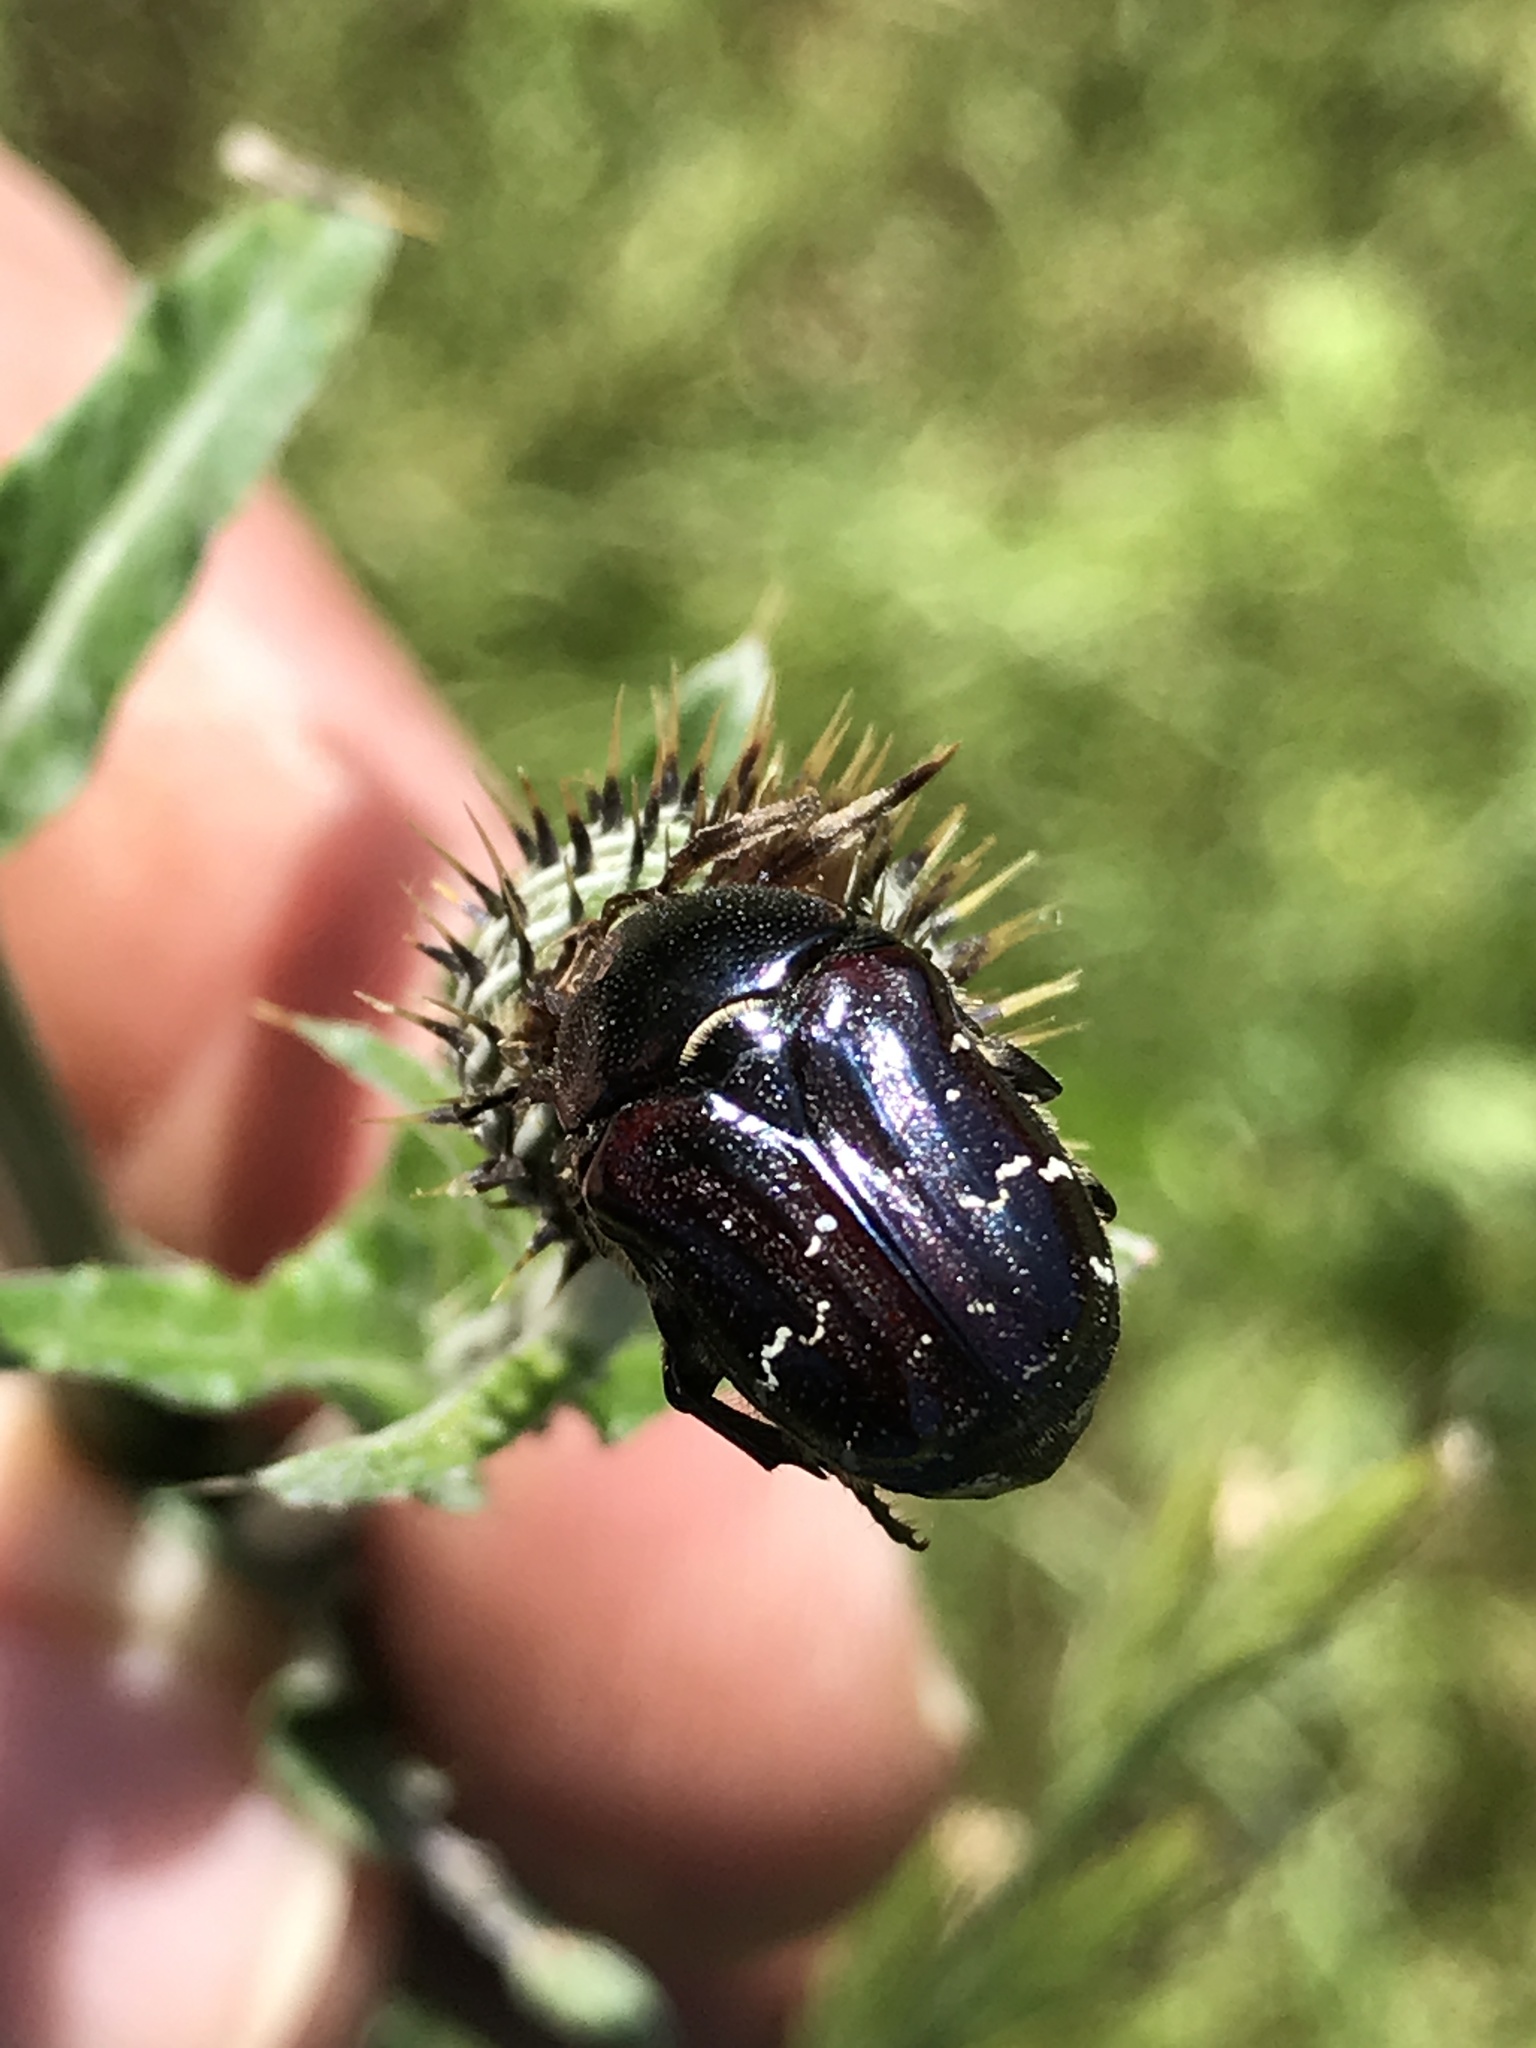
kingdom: Animalia
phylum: Arthropoda
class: Insecta
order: Coleoptera
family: Scarabaeidae
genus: Euphoria
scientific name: Euphoria sepulcralis
